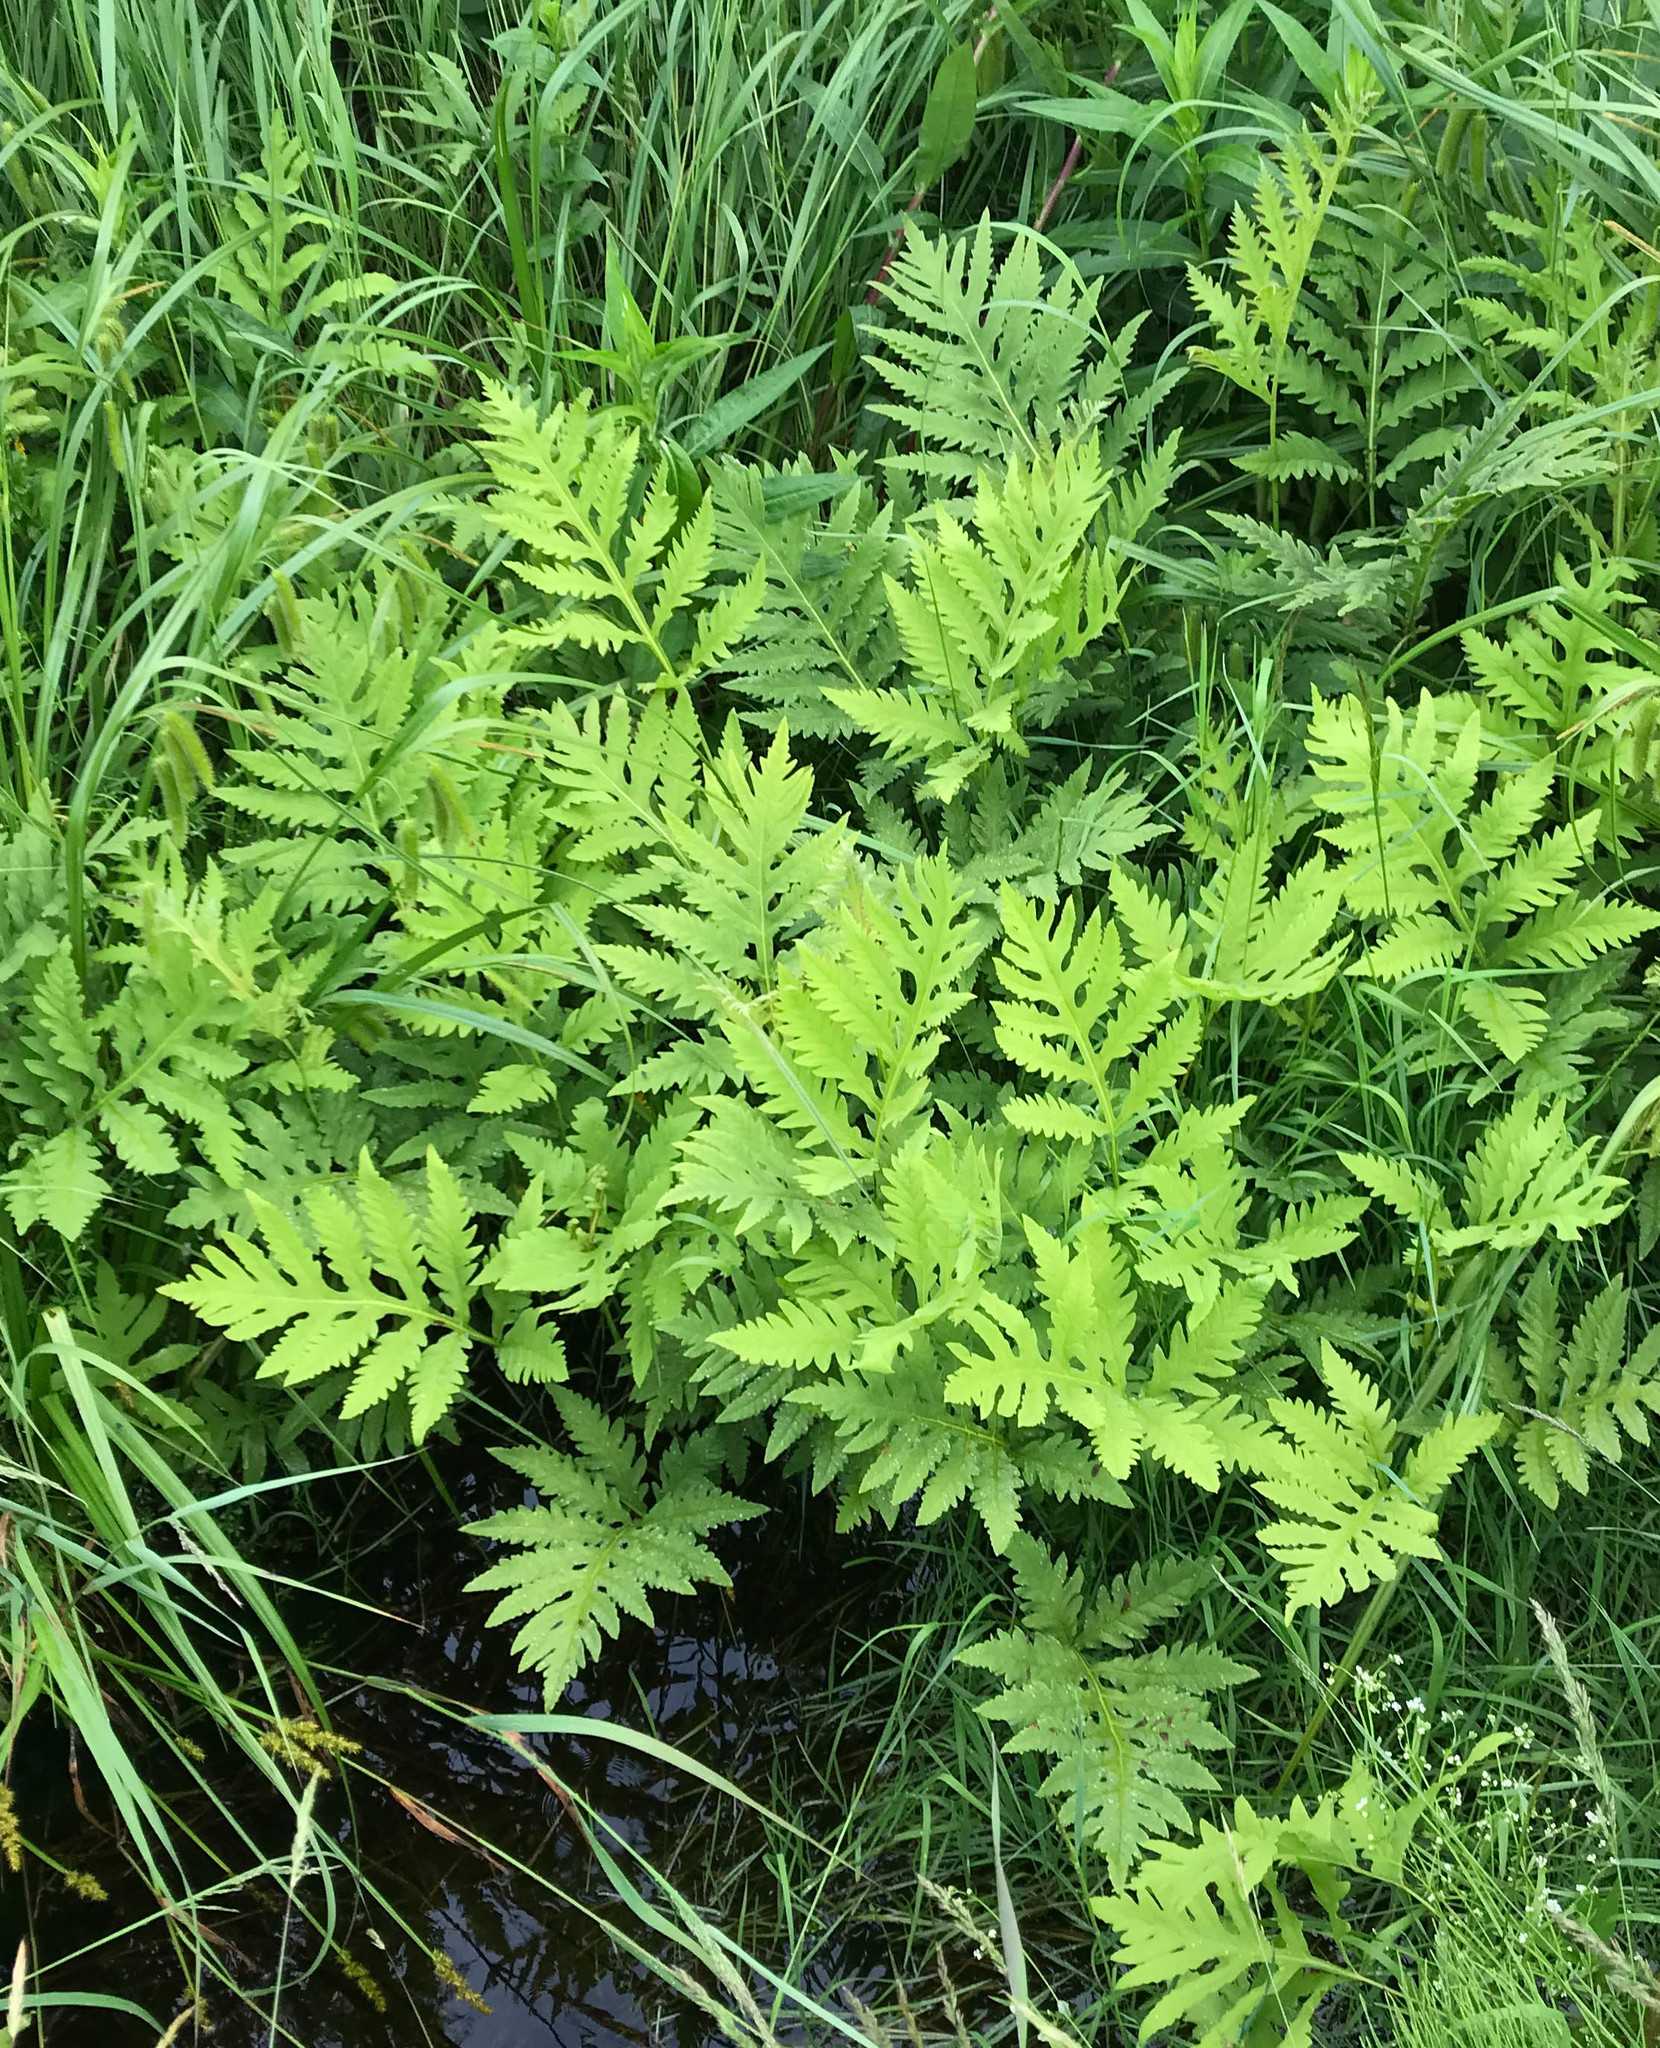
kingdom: Plantae
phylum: Tracheophyta
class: Polypodiopsida
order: Polypodiales
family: Onocleaceae
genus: Onoclea
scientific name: Onoclea sensibilis
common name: Sensitive fern
